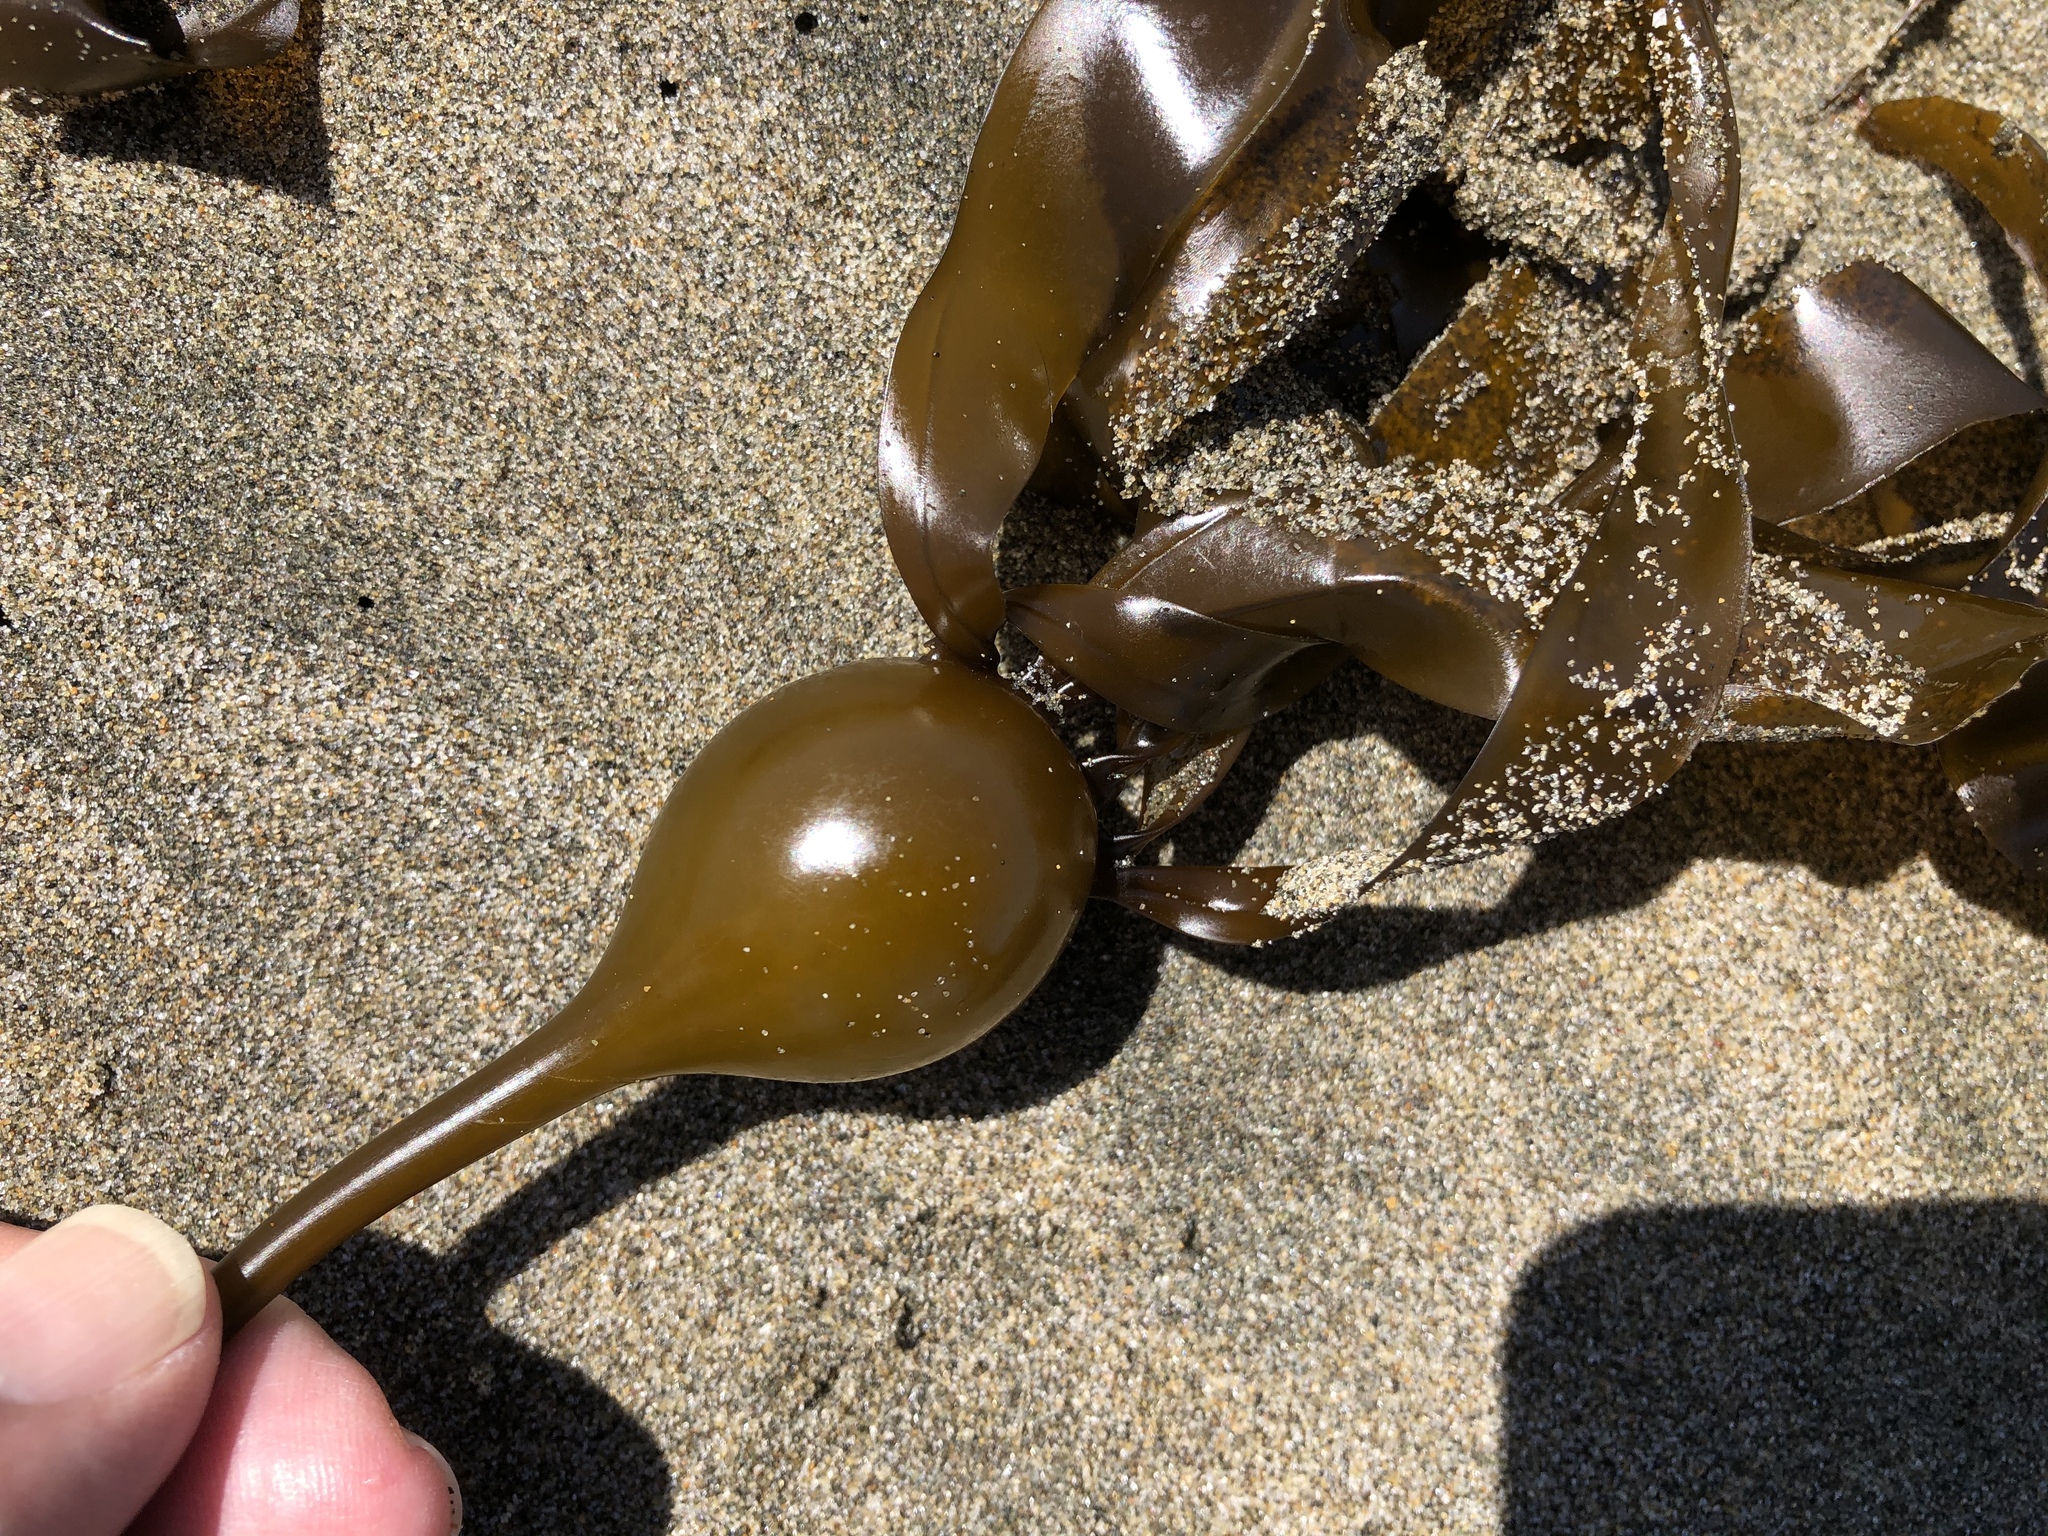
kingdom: Chromista
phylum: Ochrophyta
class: Phaeophyceae
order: Laminariales
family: Laminariaceae
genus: Nereocystis
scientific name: Nereocystis luetkeana
